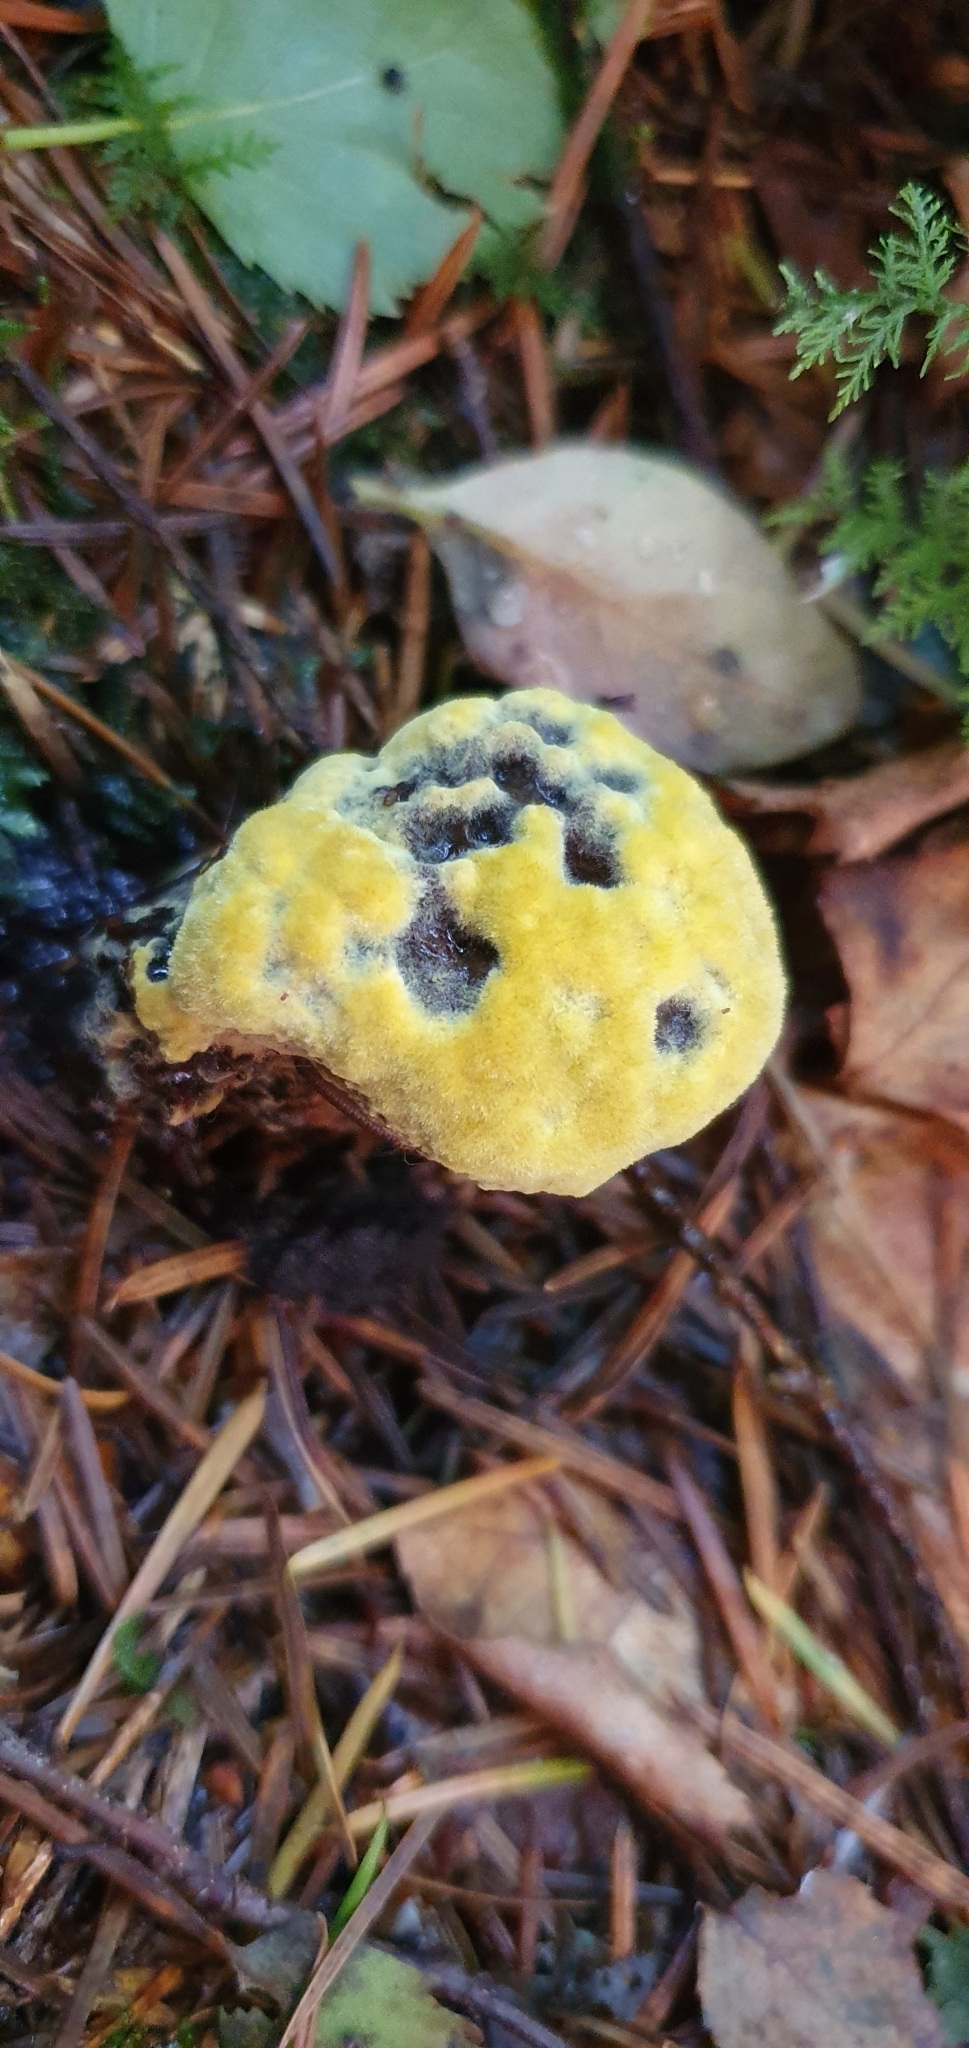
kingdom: Fungi
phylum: Basidiomycota
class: Agaricomycetes
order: Polyporales
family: Laetiporaceae
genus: Phaeolus
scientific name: Phaeolus schweinitzii
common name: Dyer's mazegill
